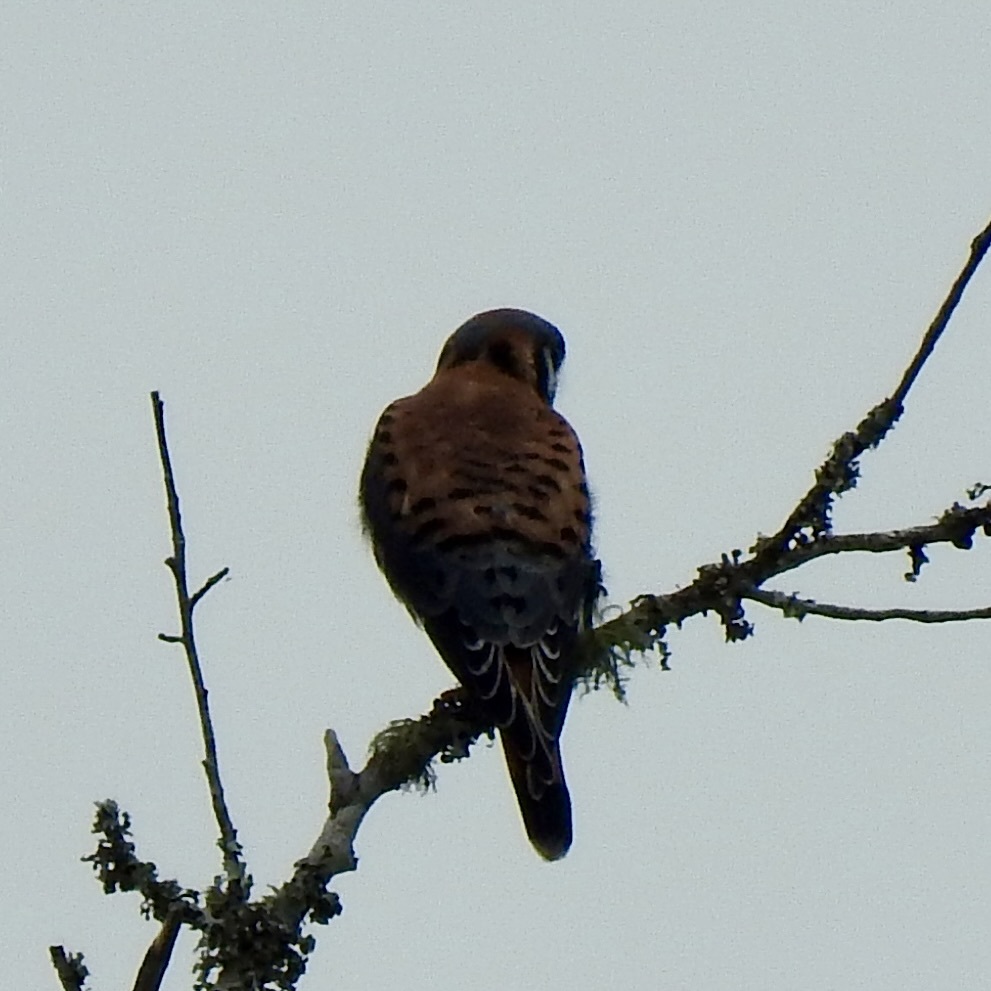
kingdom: Animalia
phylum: Chordata
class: Aves
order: Falconiformes
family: Falconidae
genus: Falco
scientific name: Falco sparverius
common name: American kestrel
